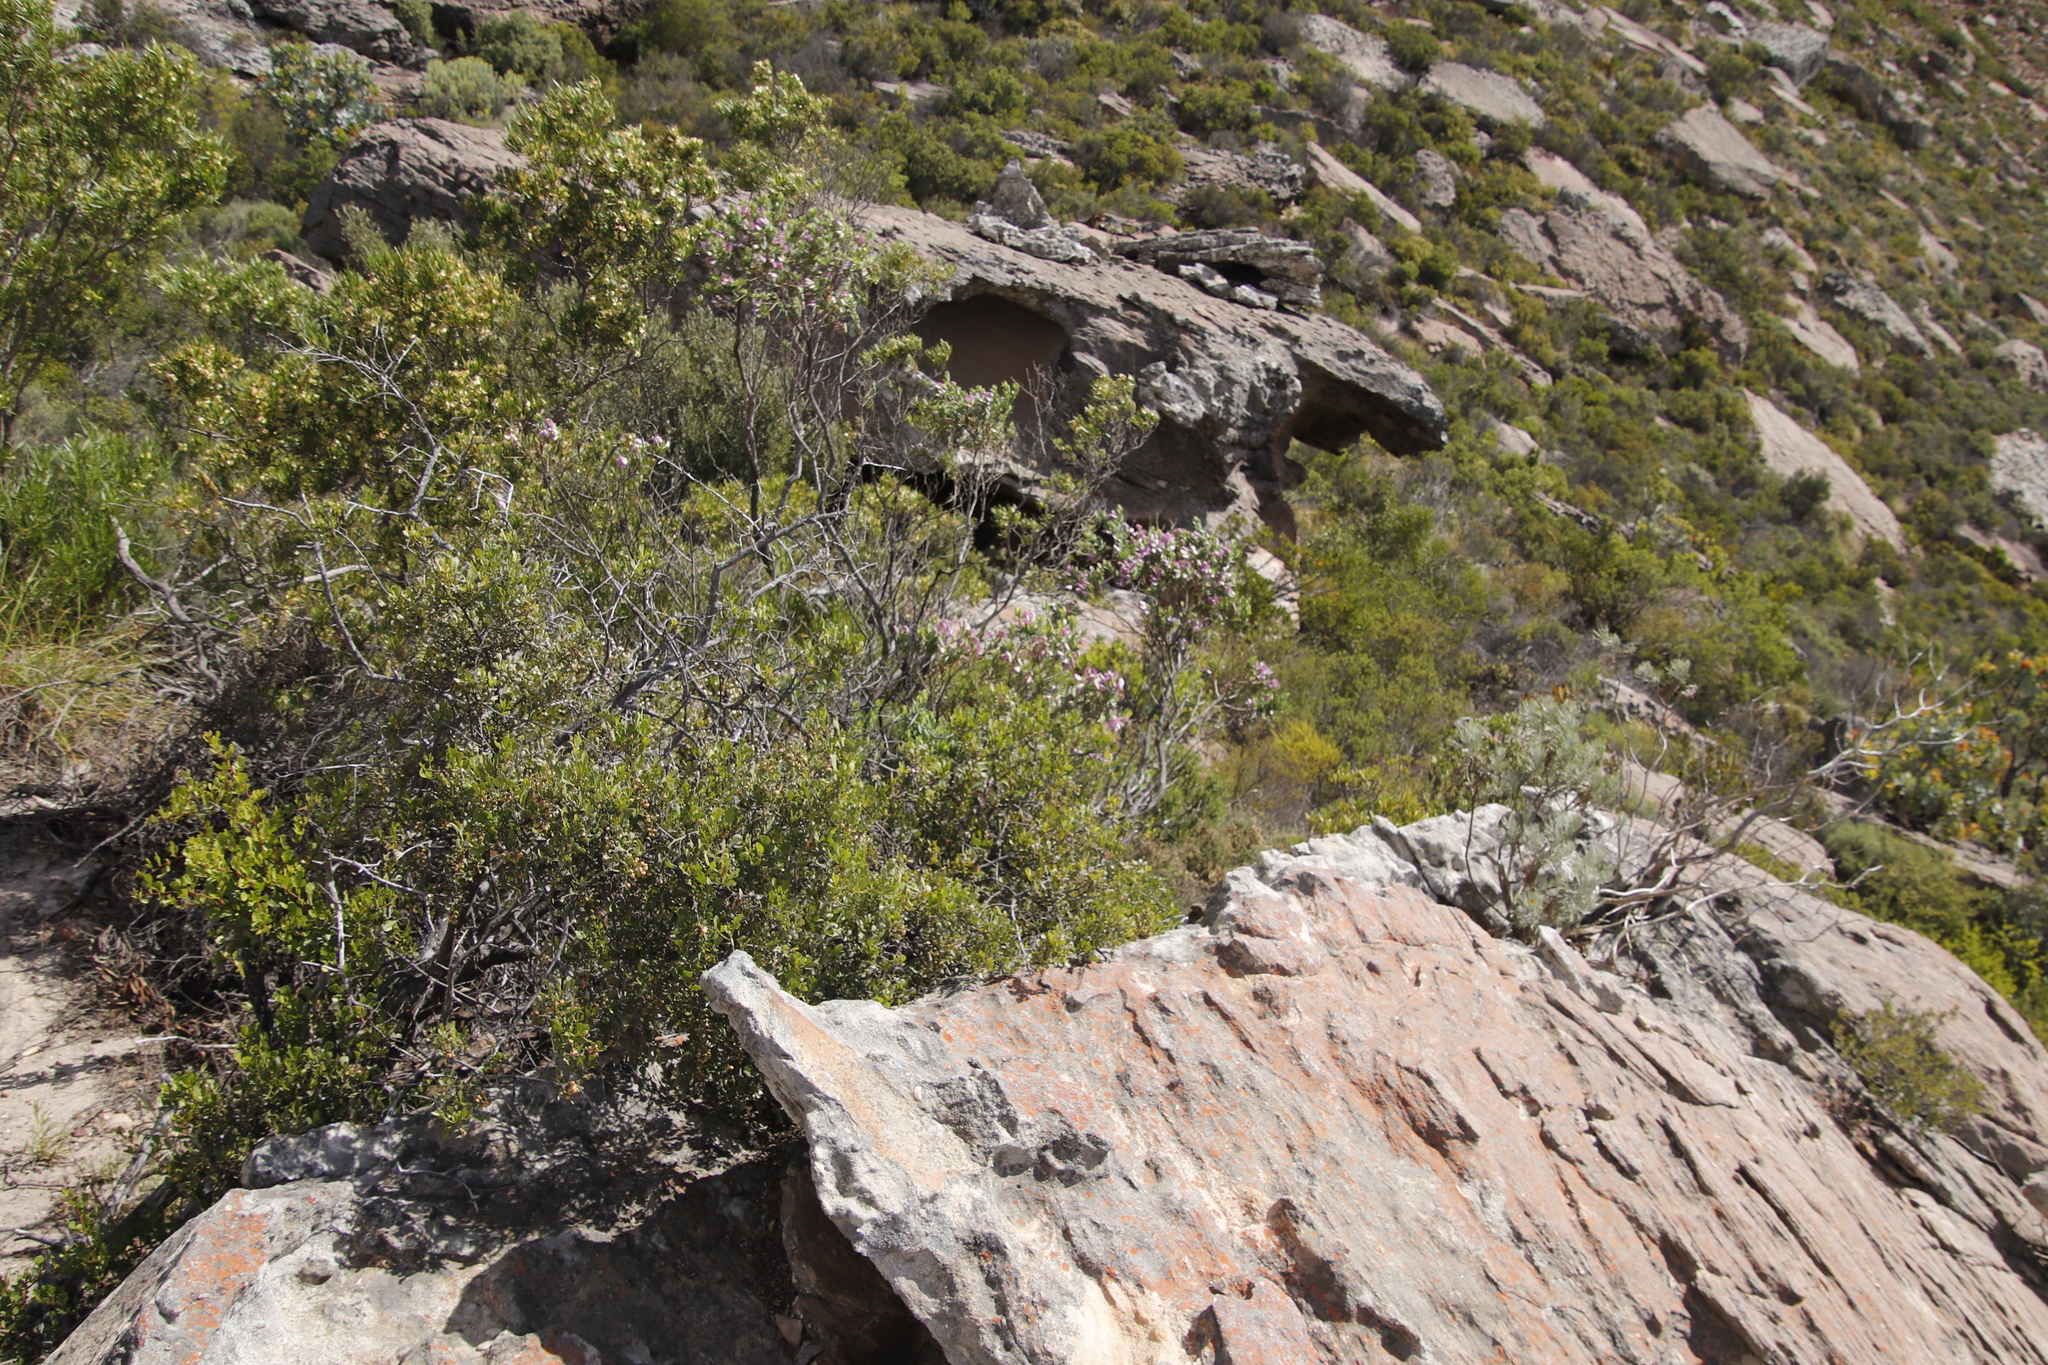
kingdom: Plantae
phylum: Tracheophyta
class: Magnoliopsida
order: Fabales
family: Polygalaceae
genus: Polygala
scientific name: Polygala myrtifolia
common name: Myrtle-leaf milkwort
